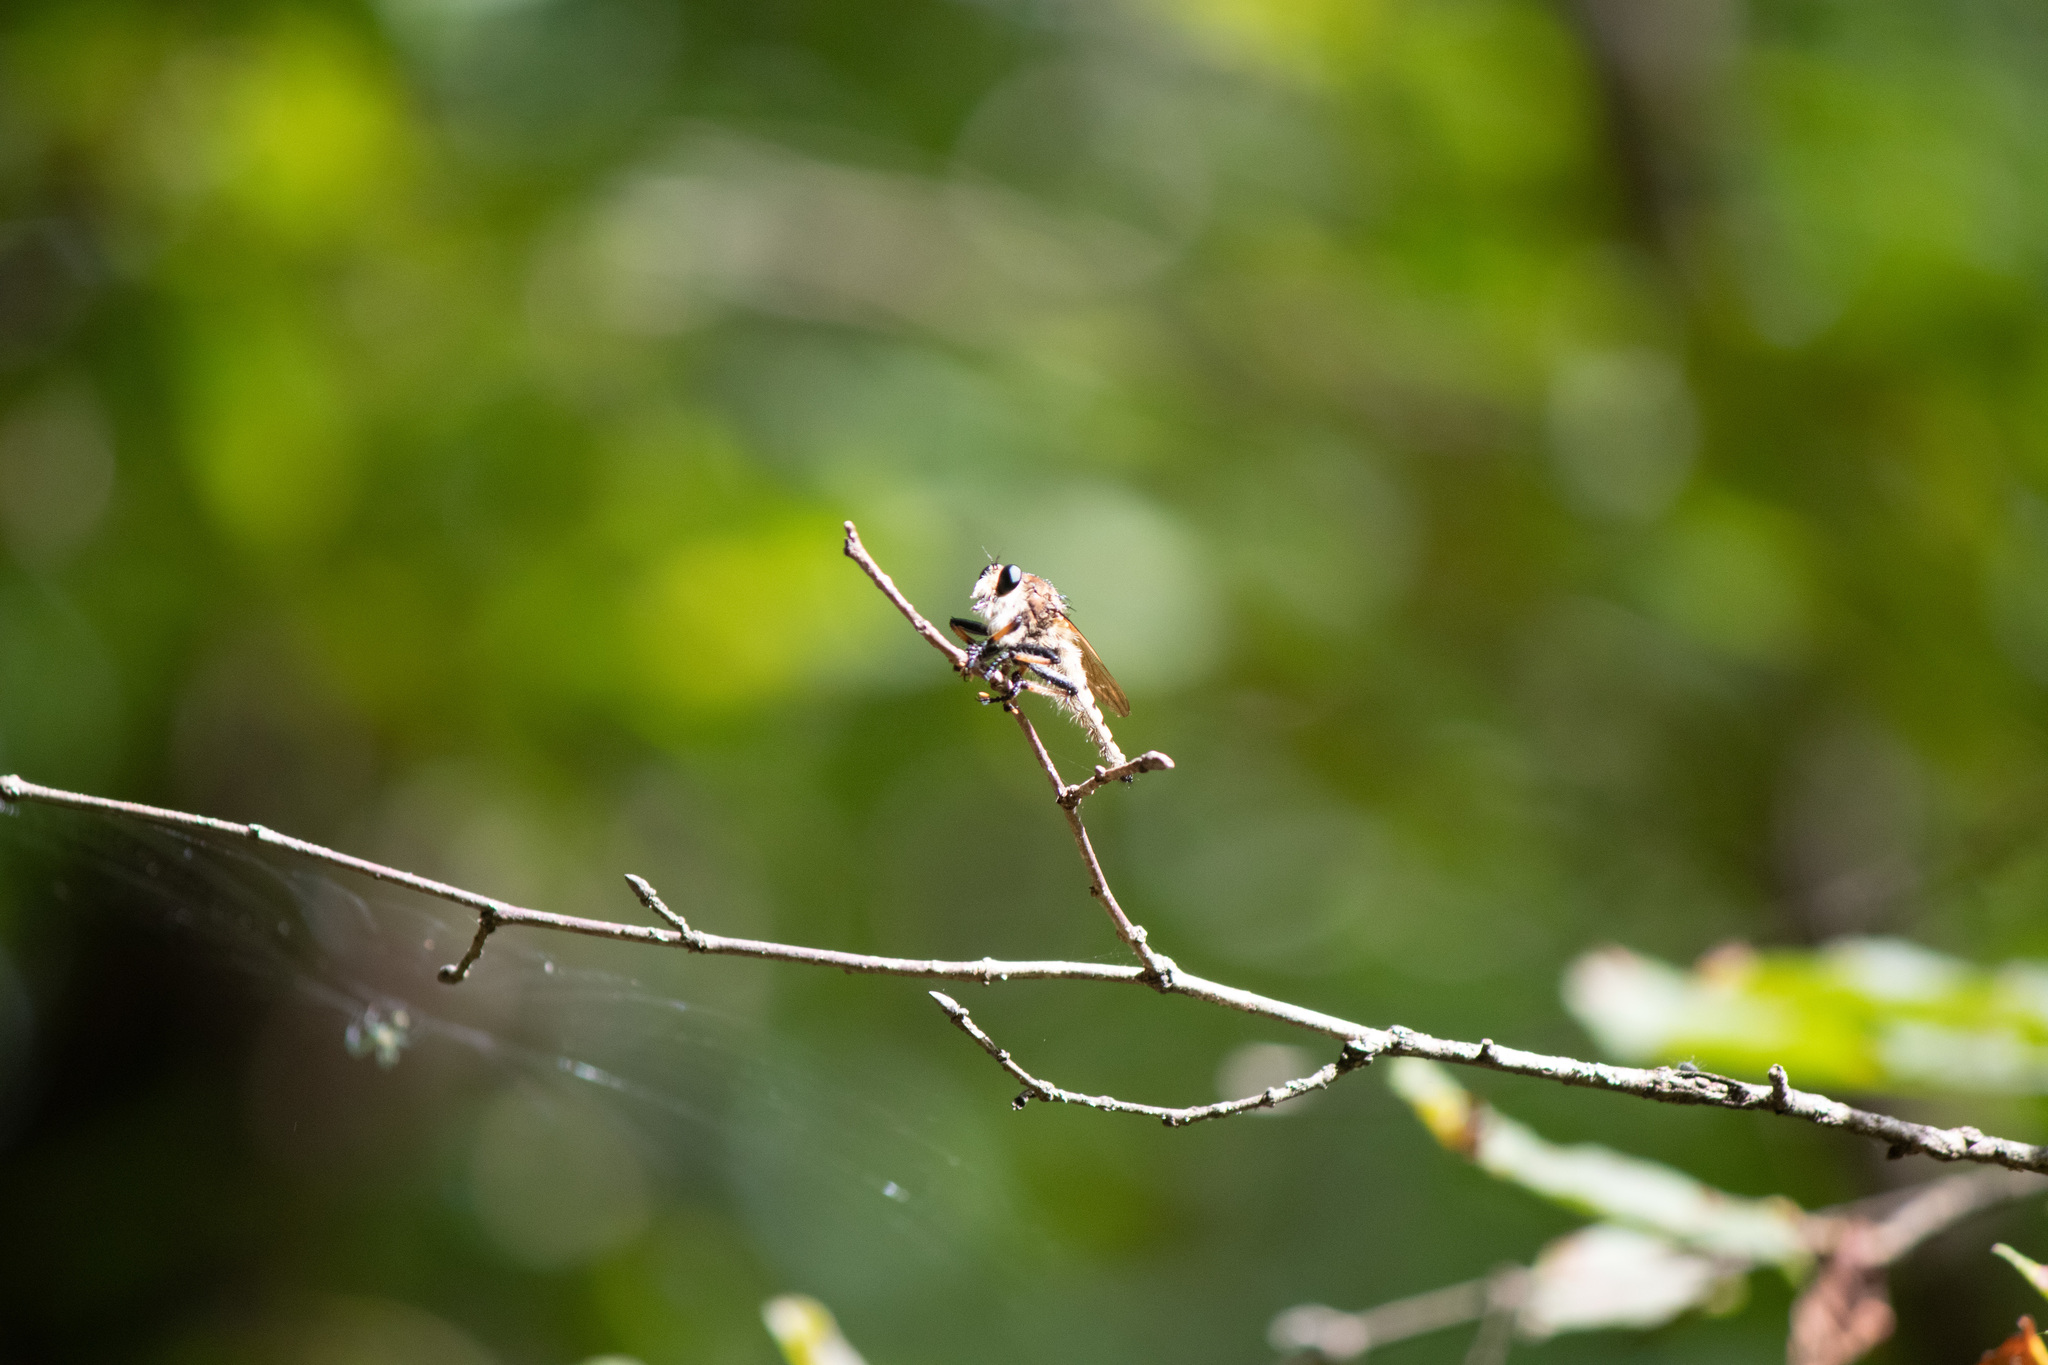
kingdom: Animalia
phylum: Arthropoda
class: Insecta
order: Diptera
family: Asilidae
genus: Promachus
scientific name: Promachus rufipes
